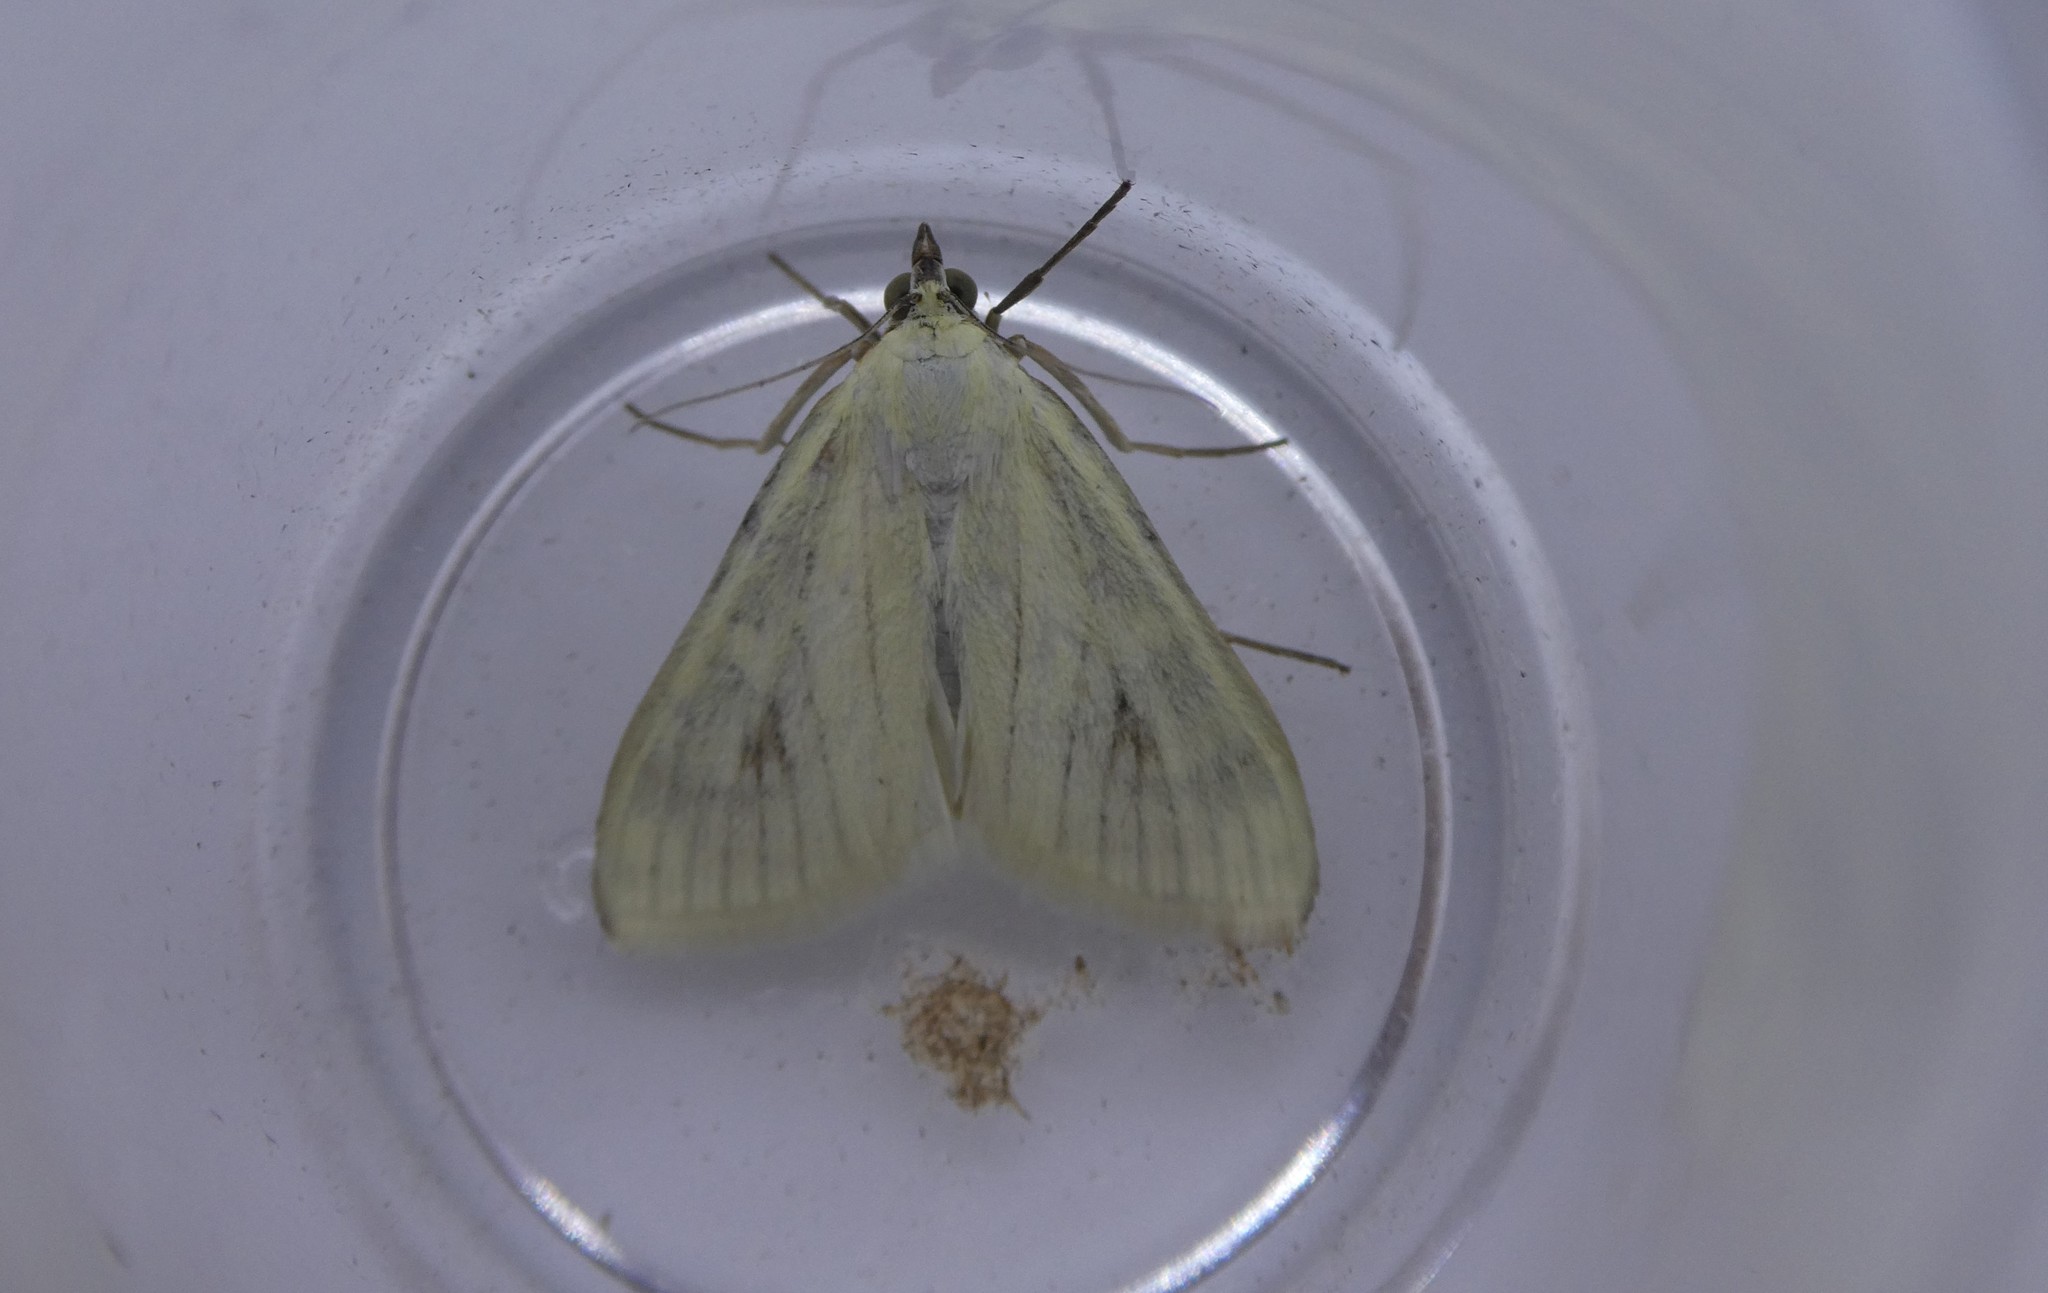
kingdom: Animalia
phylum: Arthropoda
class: Insecta
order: Lepidoptera
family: Crambidae
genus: Sitochroa
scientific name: Sitochroa palealis
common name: Greenish-yellow sitochroa moth
